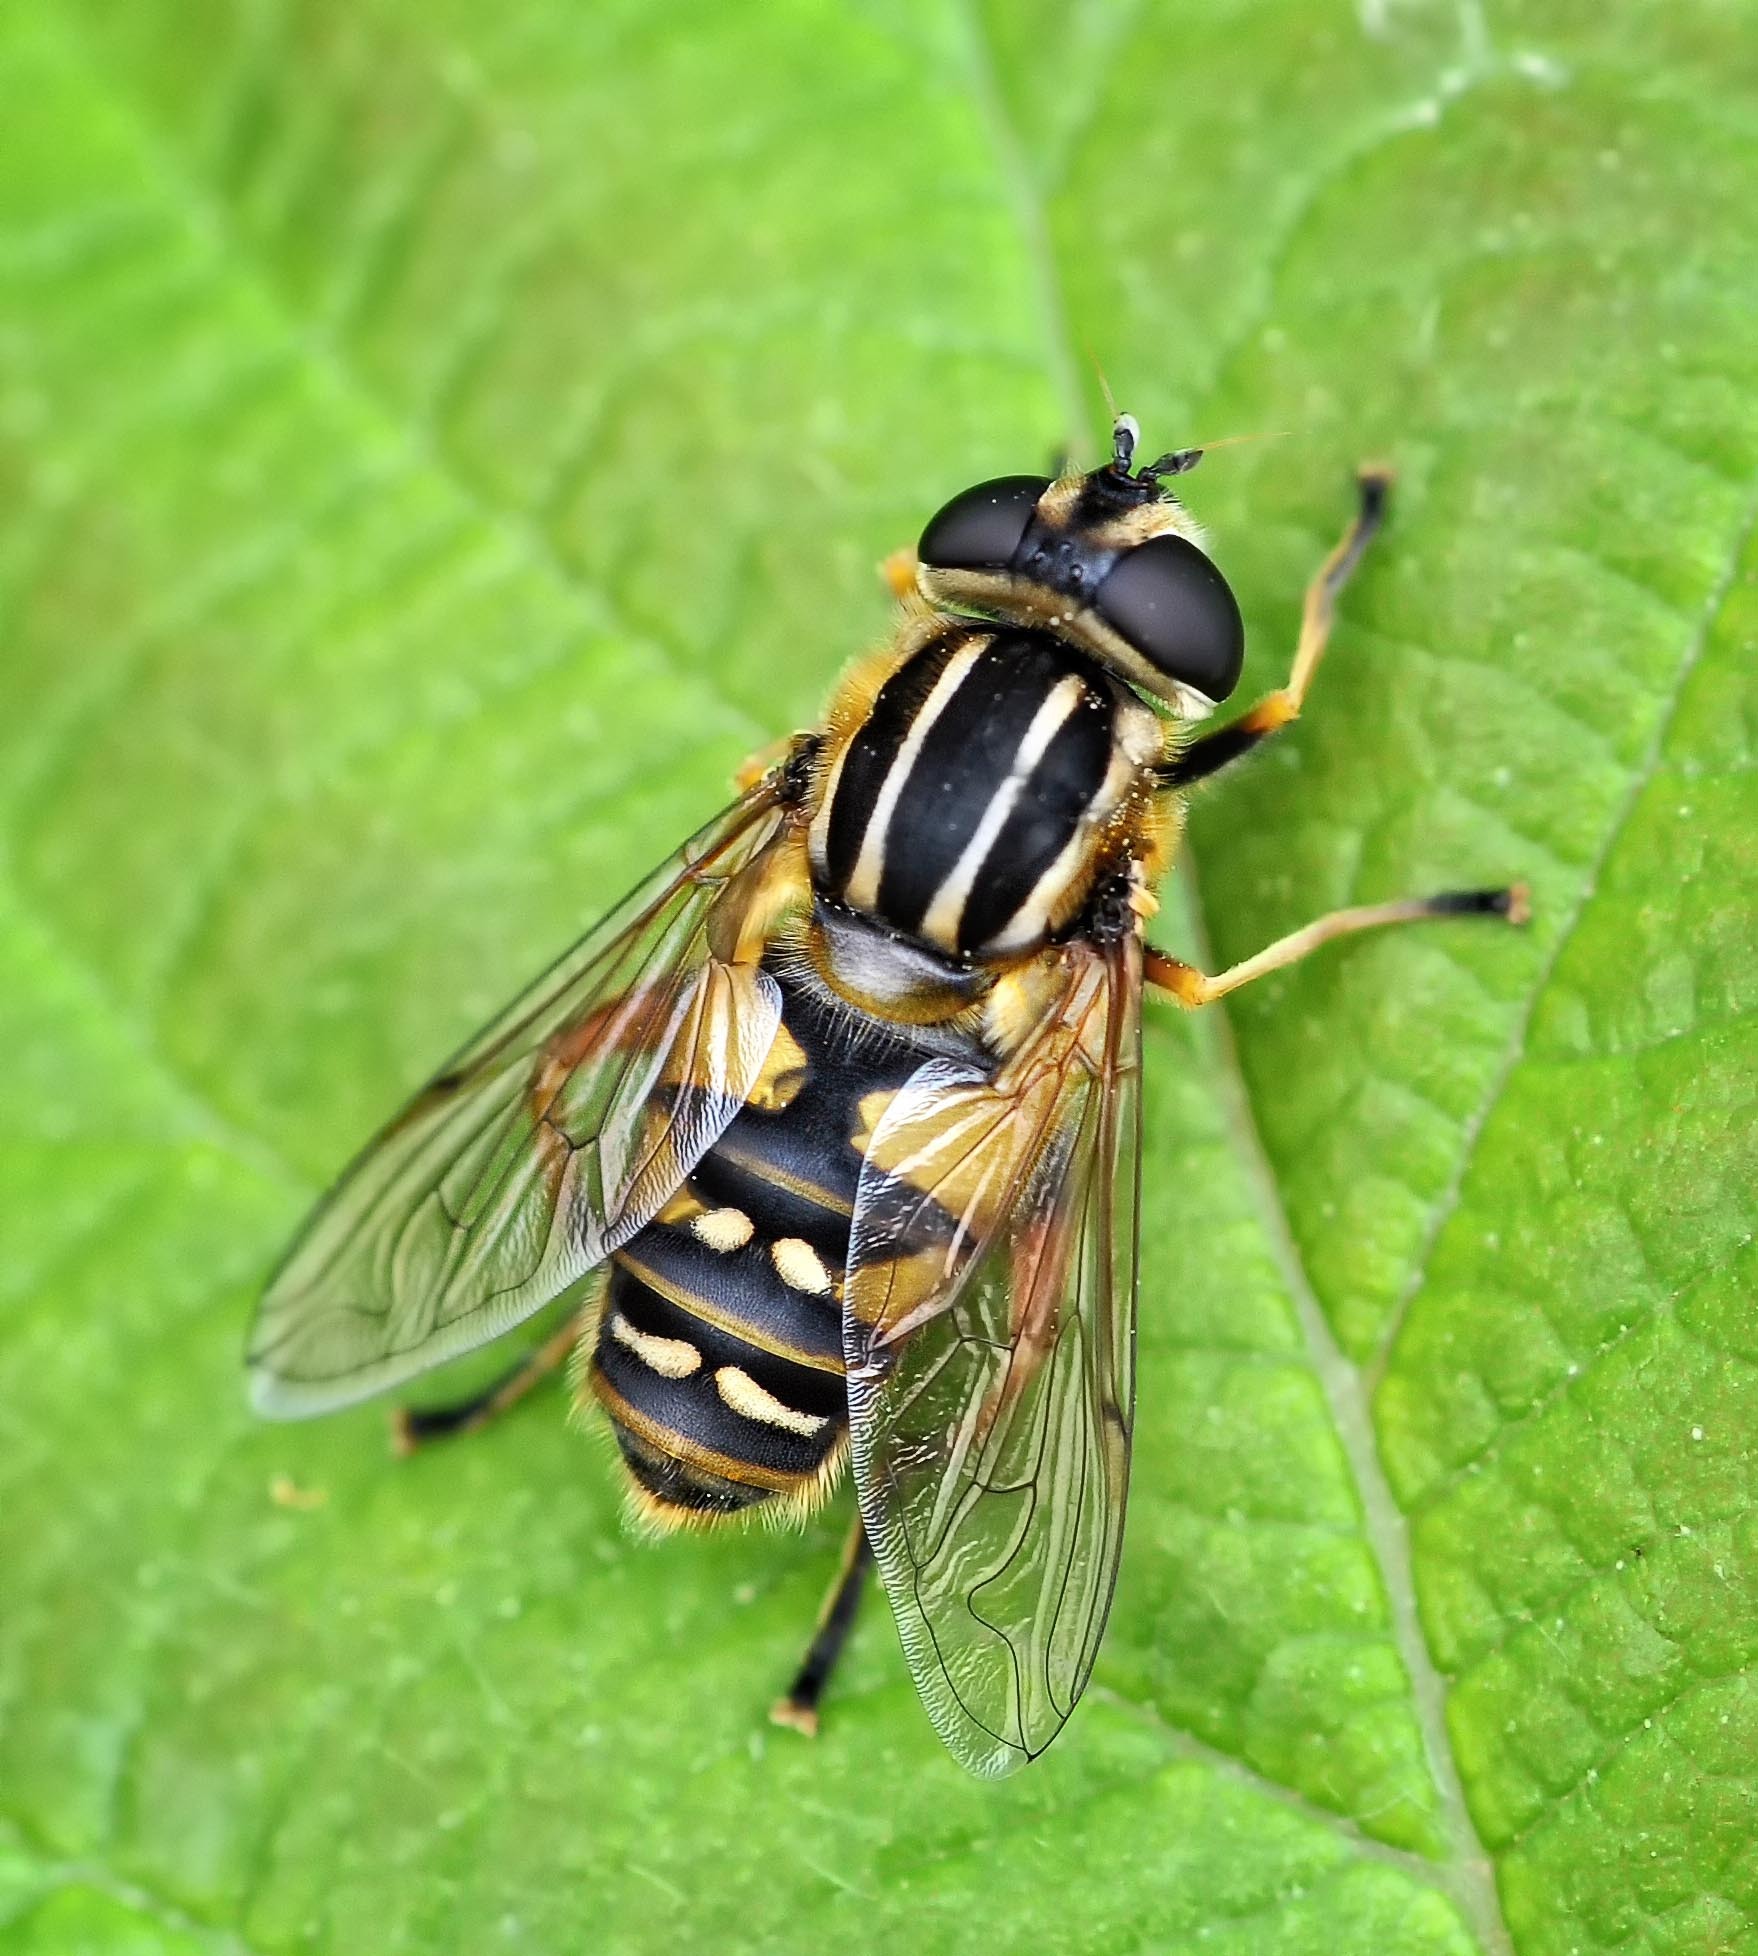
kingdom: Animalia
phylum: Arthropoda
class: Insecta
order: Diptera
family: Syrphidae
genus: Helophilus
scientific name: Helophilus pendulus
